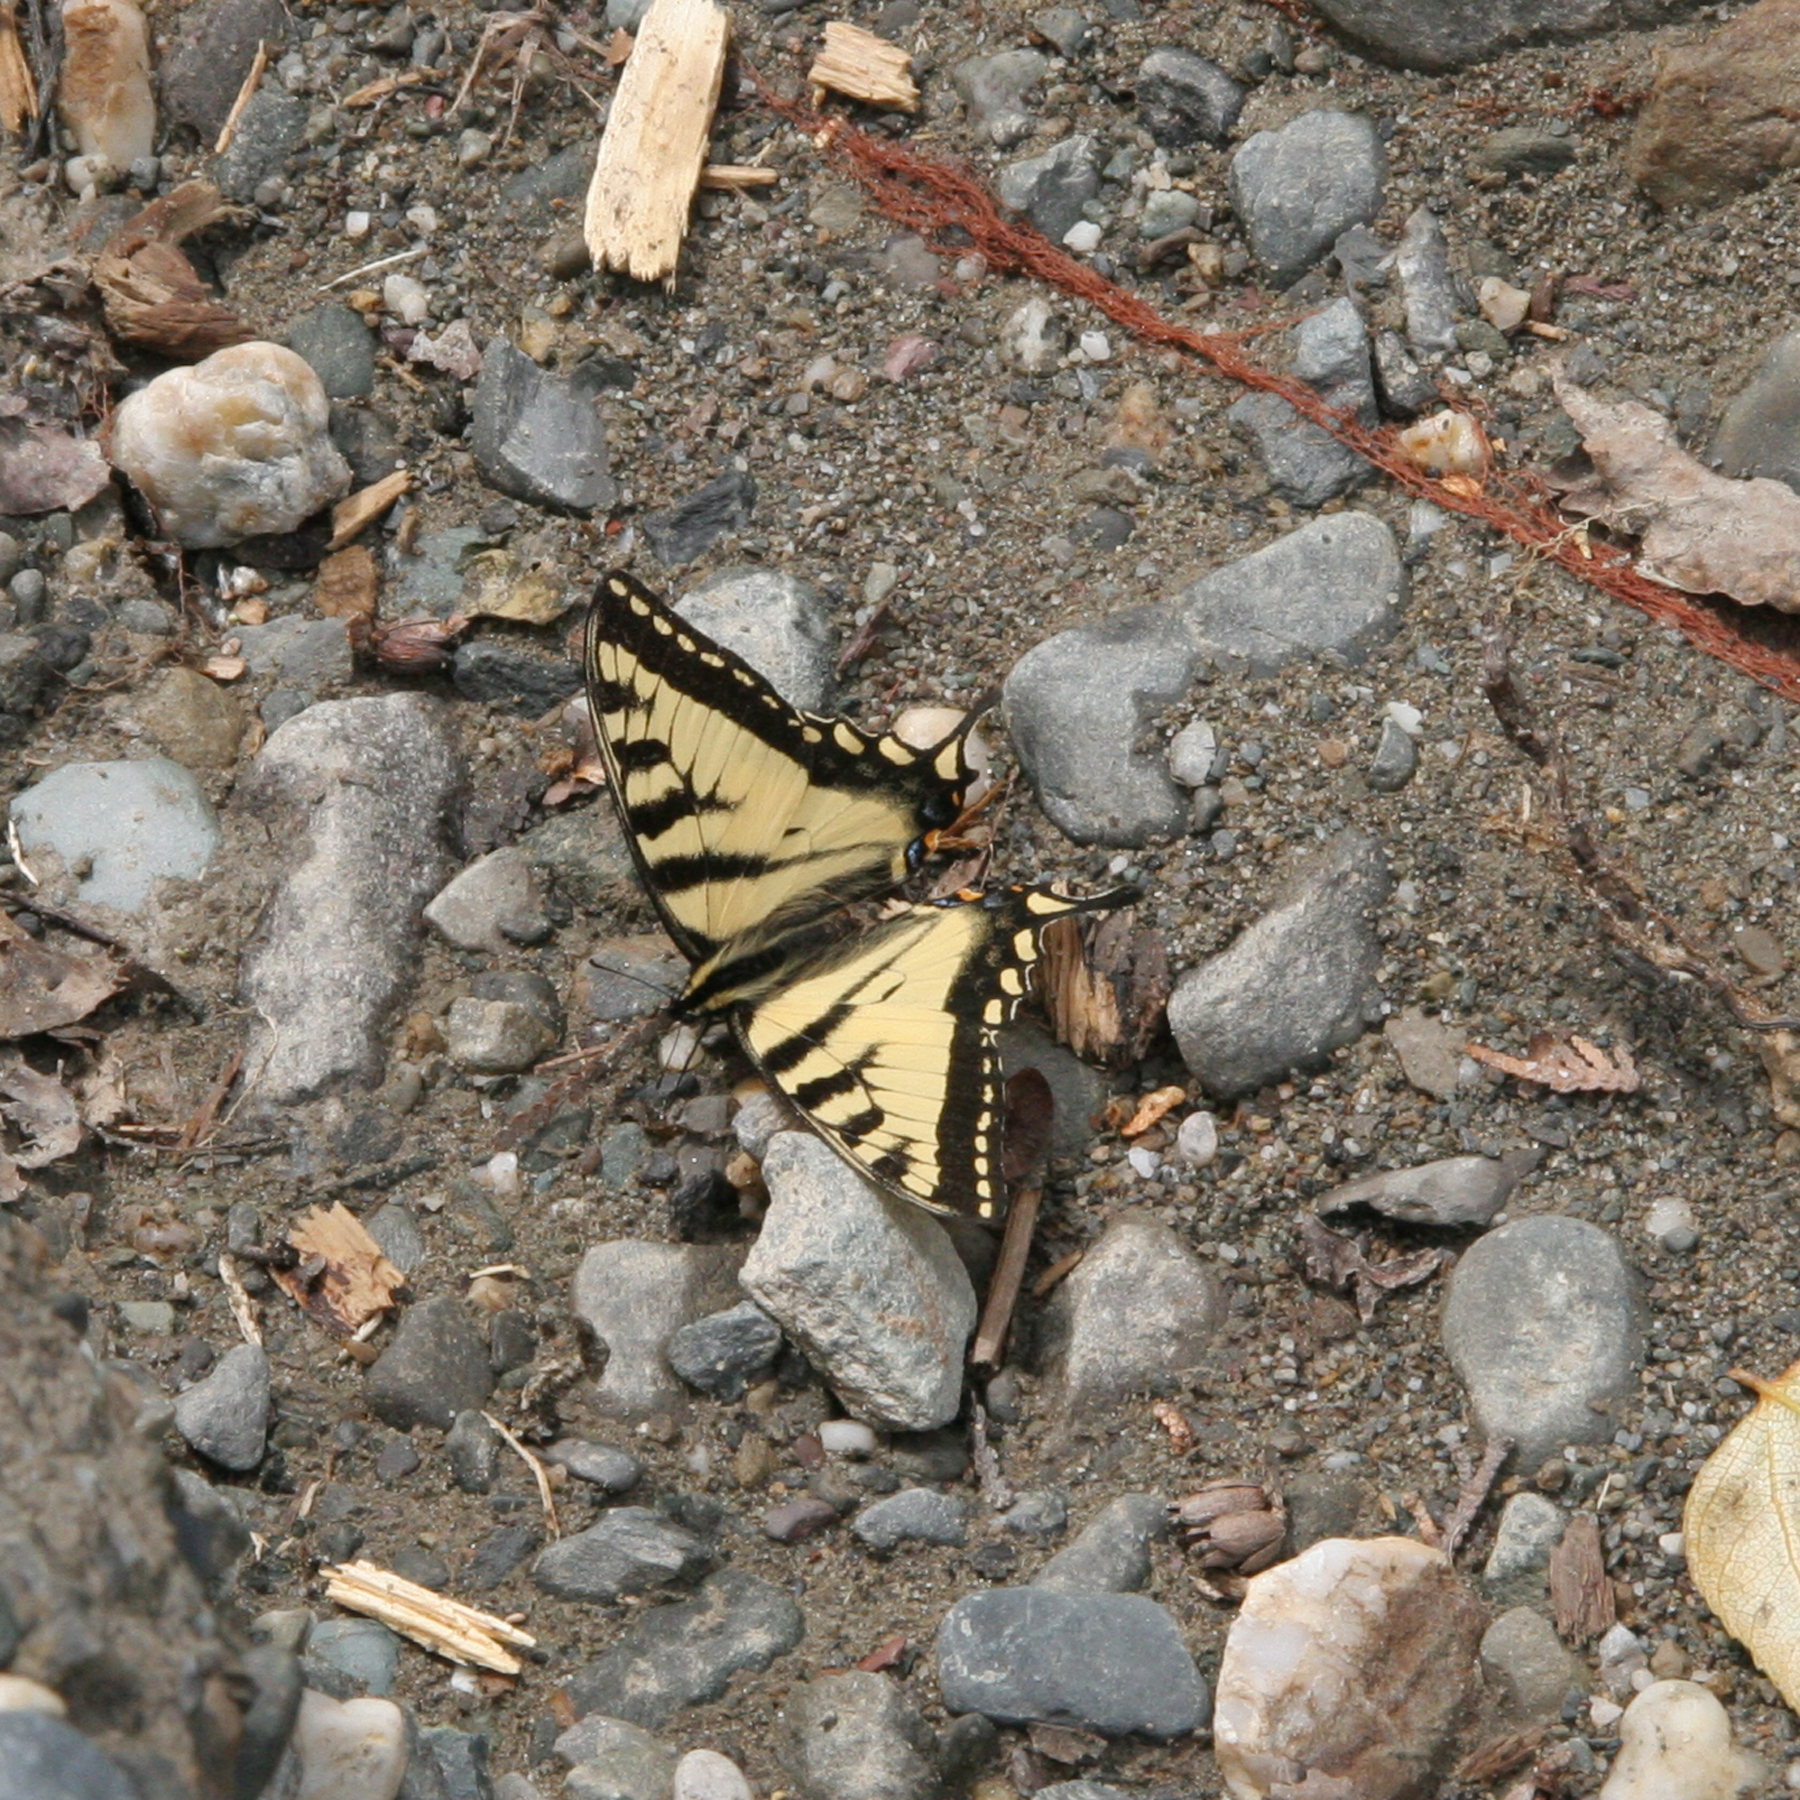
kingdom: Animalia
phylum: Arthropoda
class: Insecta
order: Lepidoptera
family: Papilionidae
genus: Papilio
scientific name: Papilio canadensis
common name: Canadian tiger swallowtail
